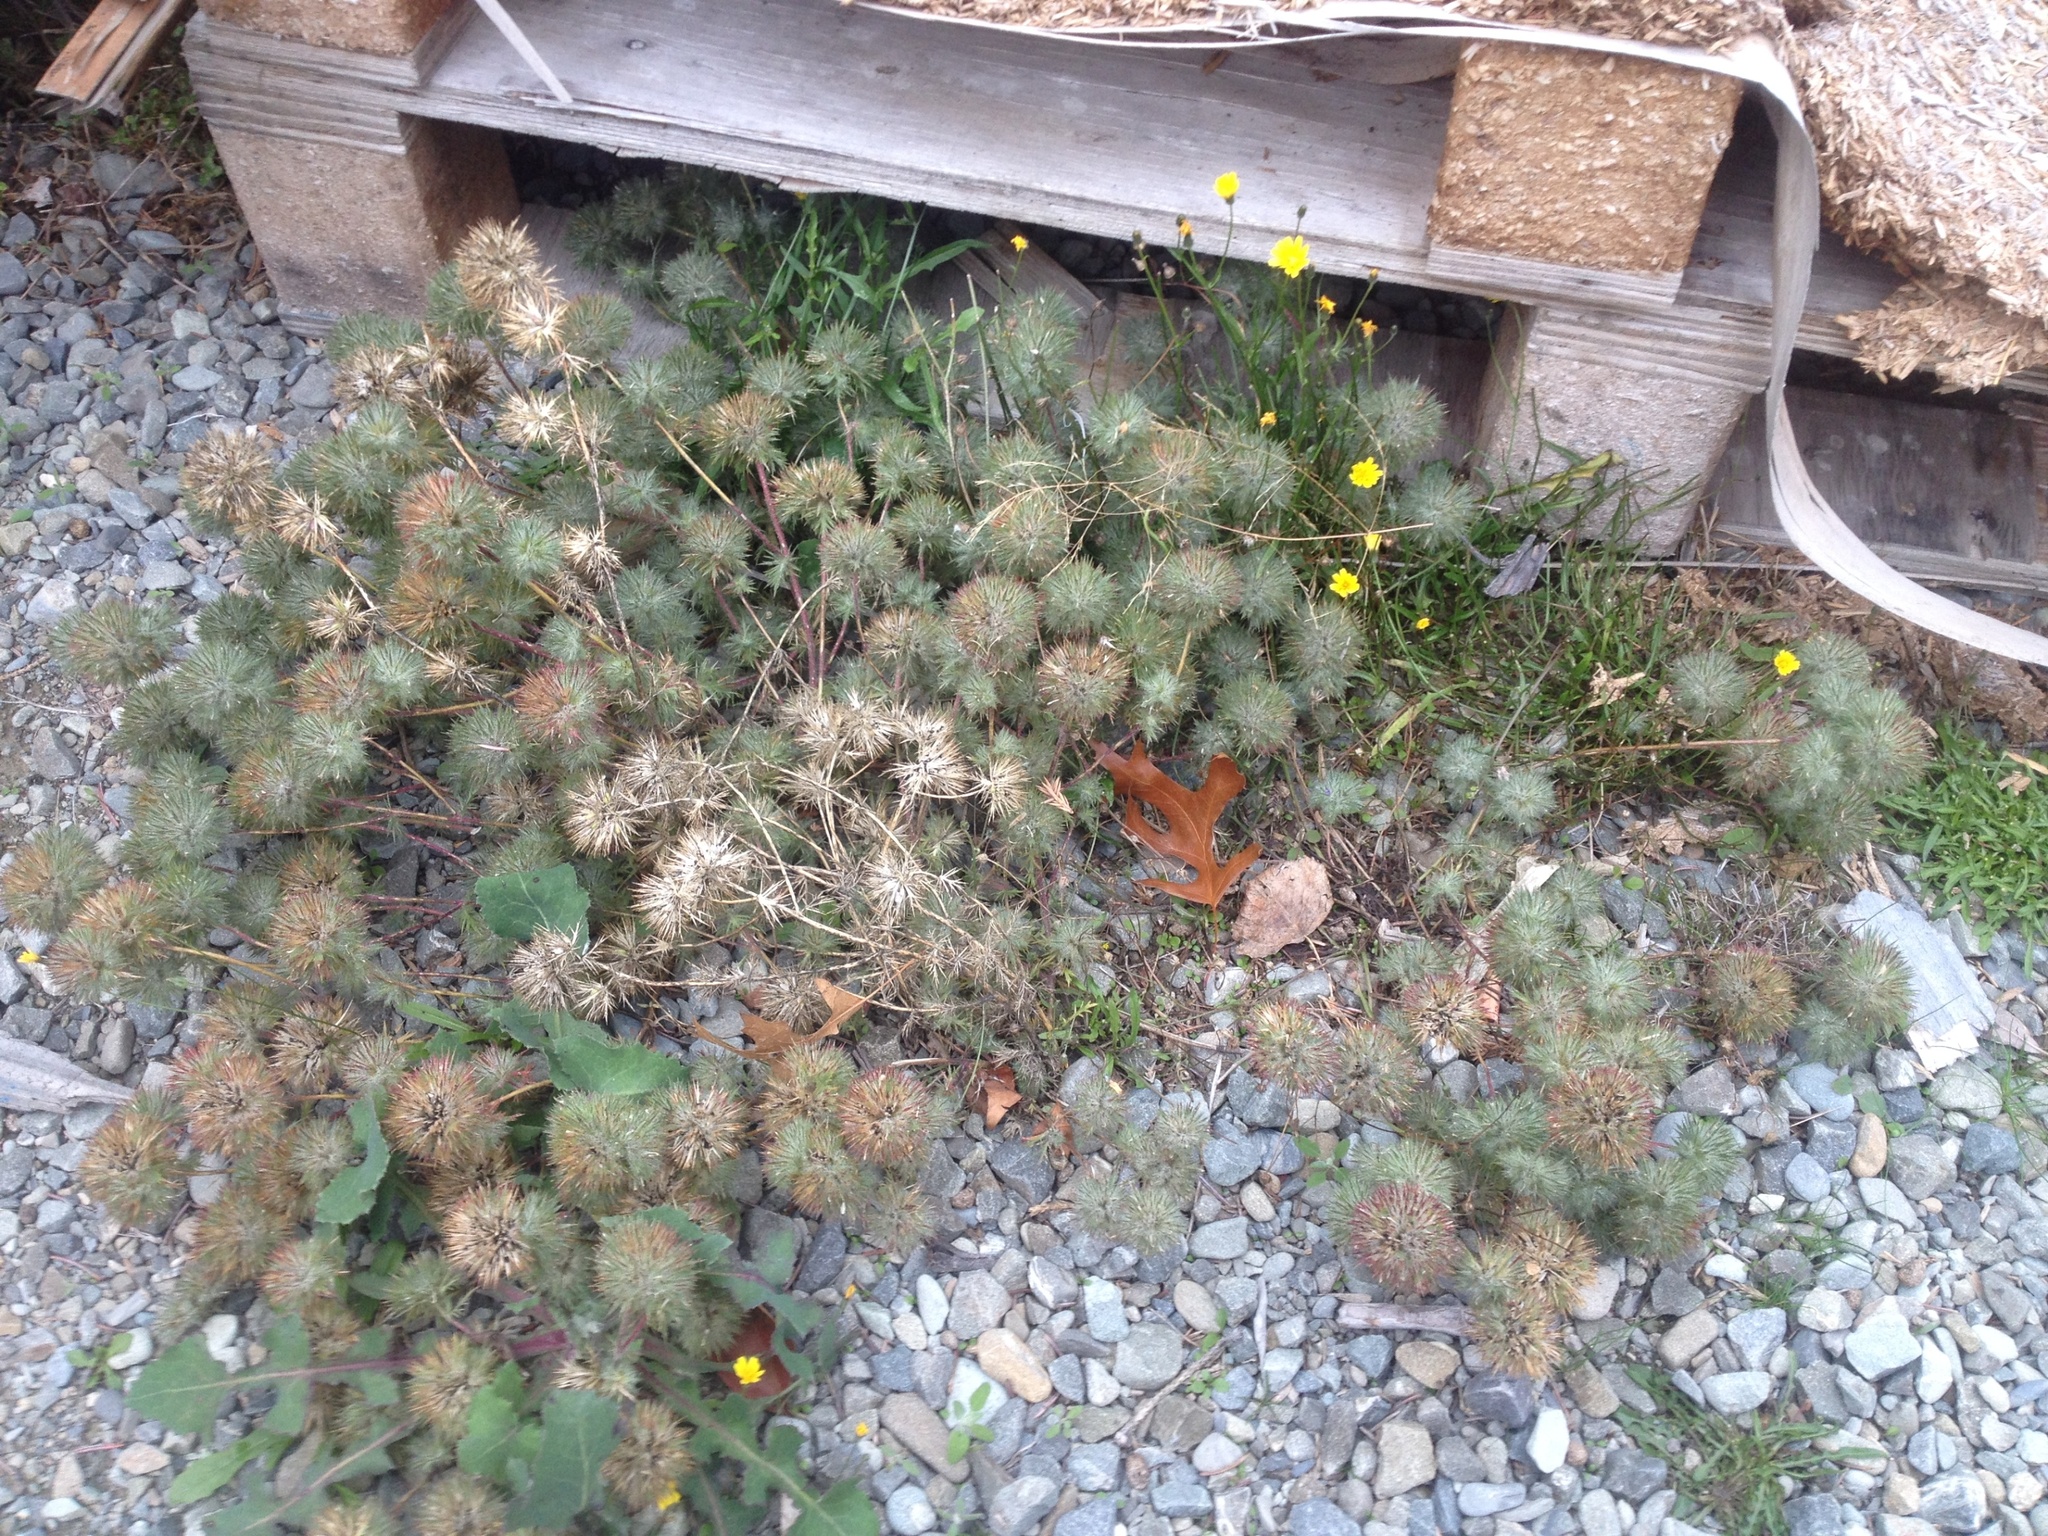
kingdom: Plantae
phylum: Tracheophyta
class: Magnoliopsida
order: Ericales
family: Polemoniaceae
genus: Navarretia
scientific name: Navarretia squarrosa
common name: Skunkweed
